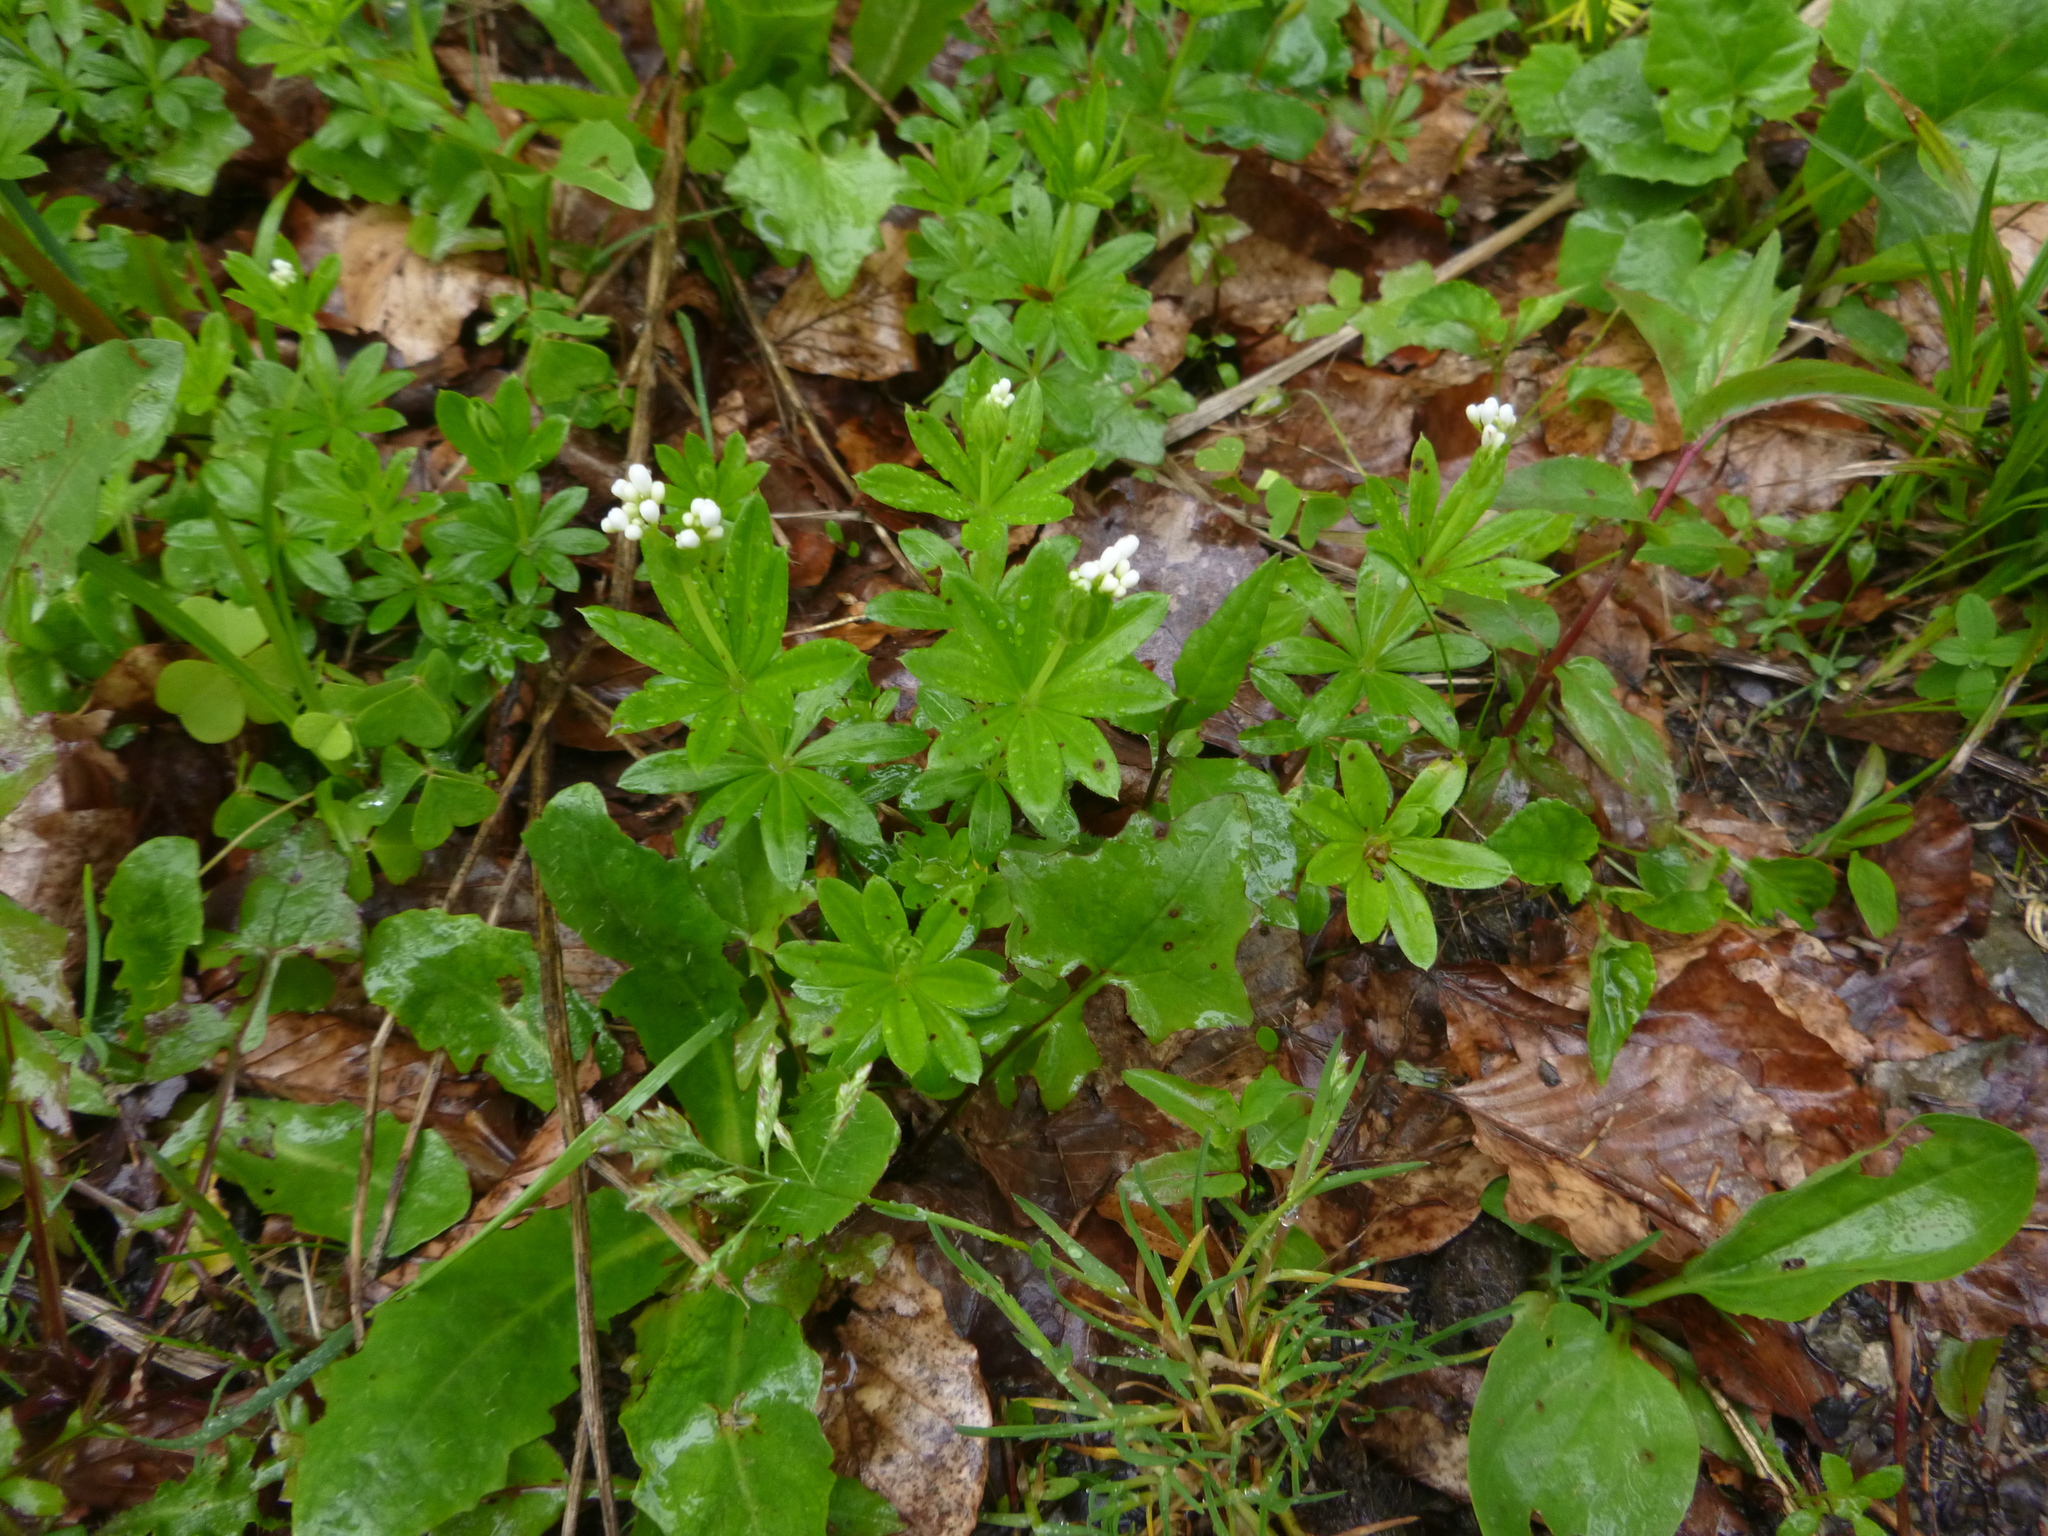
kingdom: Plantae
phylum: Tracheophyta
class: Magnoliopsida
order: Gentianales
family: Rubiaceae
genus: Galium
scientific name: Galium odoratum
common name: Sweet woodruff
